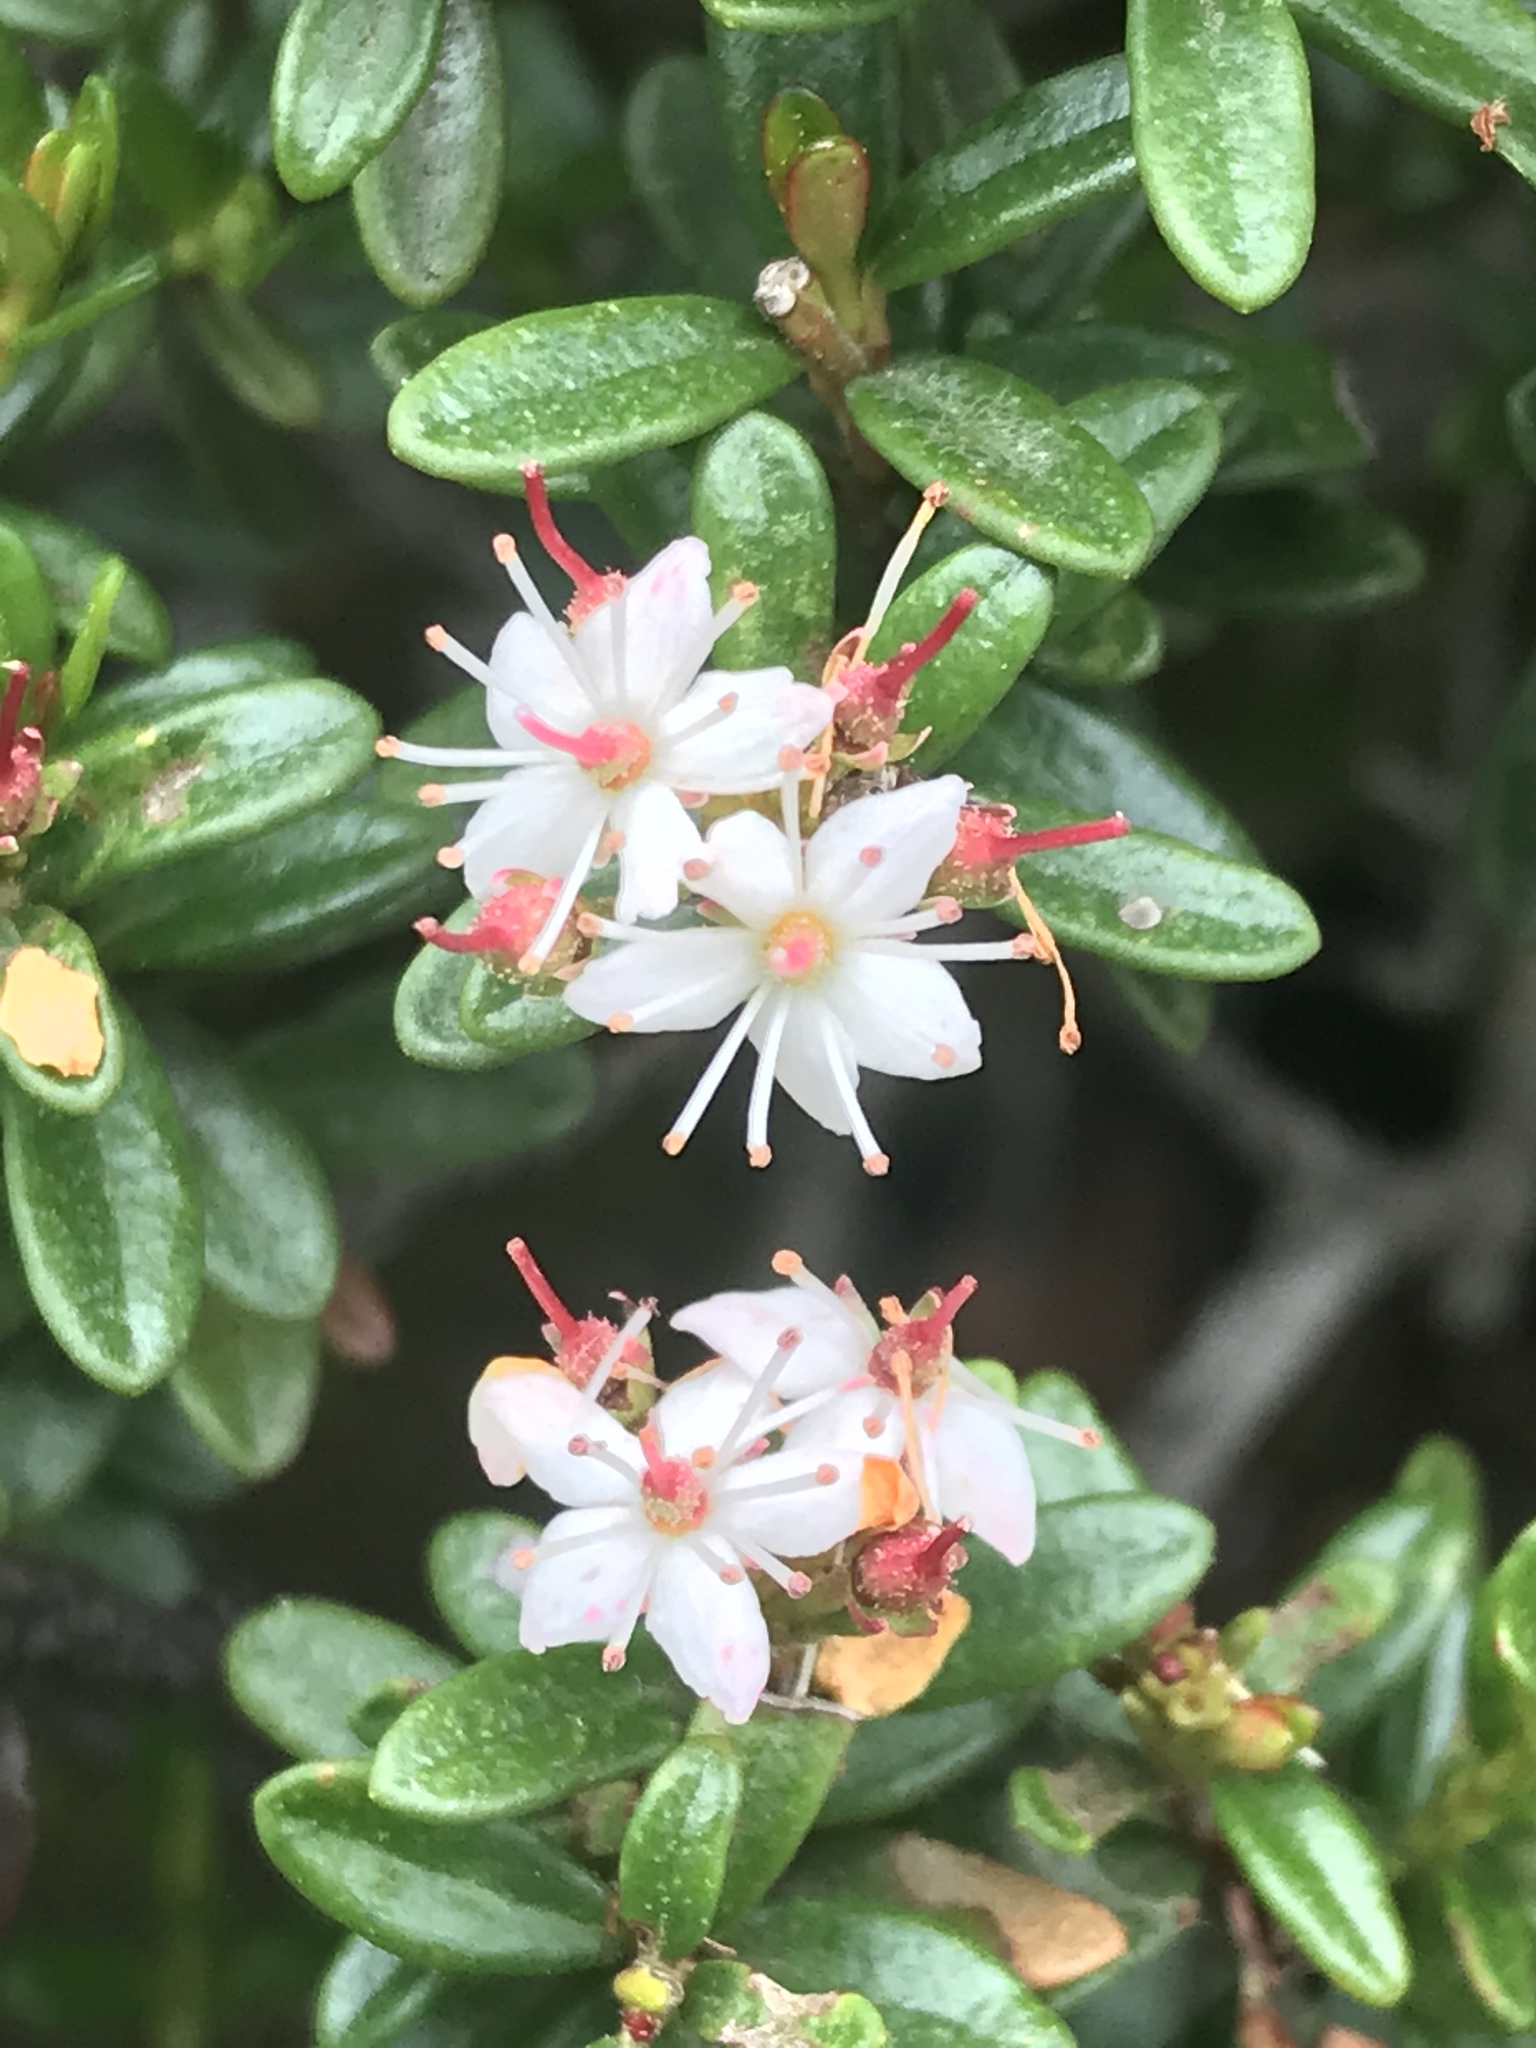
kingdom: Plantae
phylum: Tracheophyta
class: Magnoliopsida
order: Ericales
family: Ericaceae
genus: Kalmia
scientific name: Kalmia buxifolia
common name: Sandmyrtle
